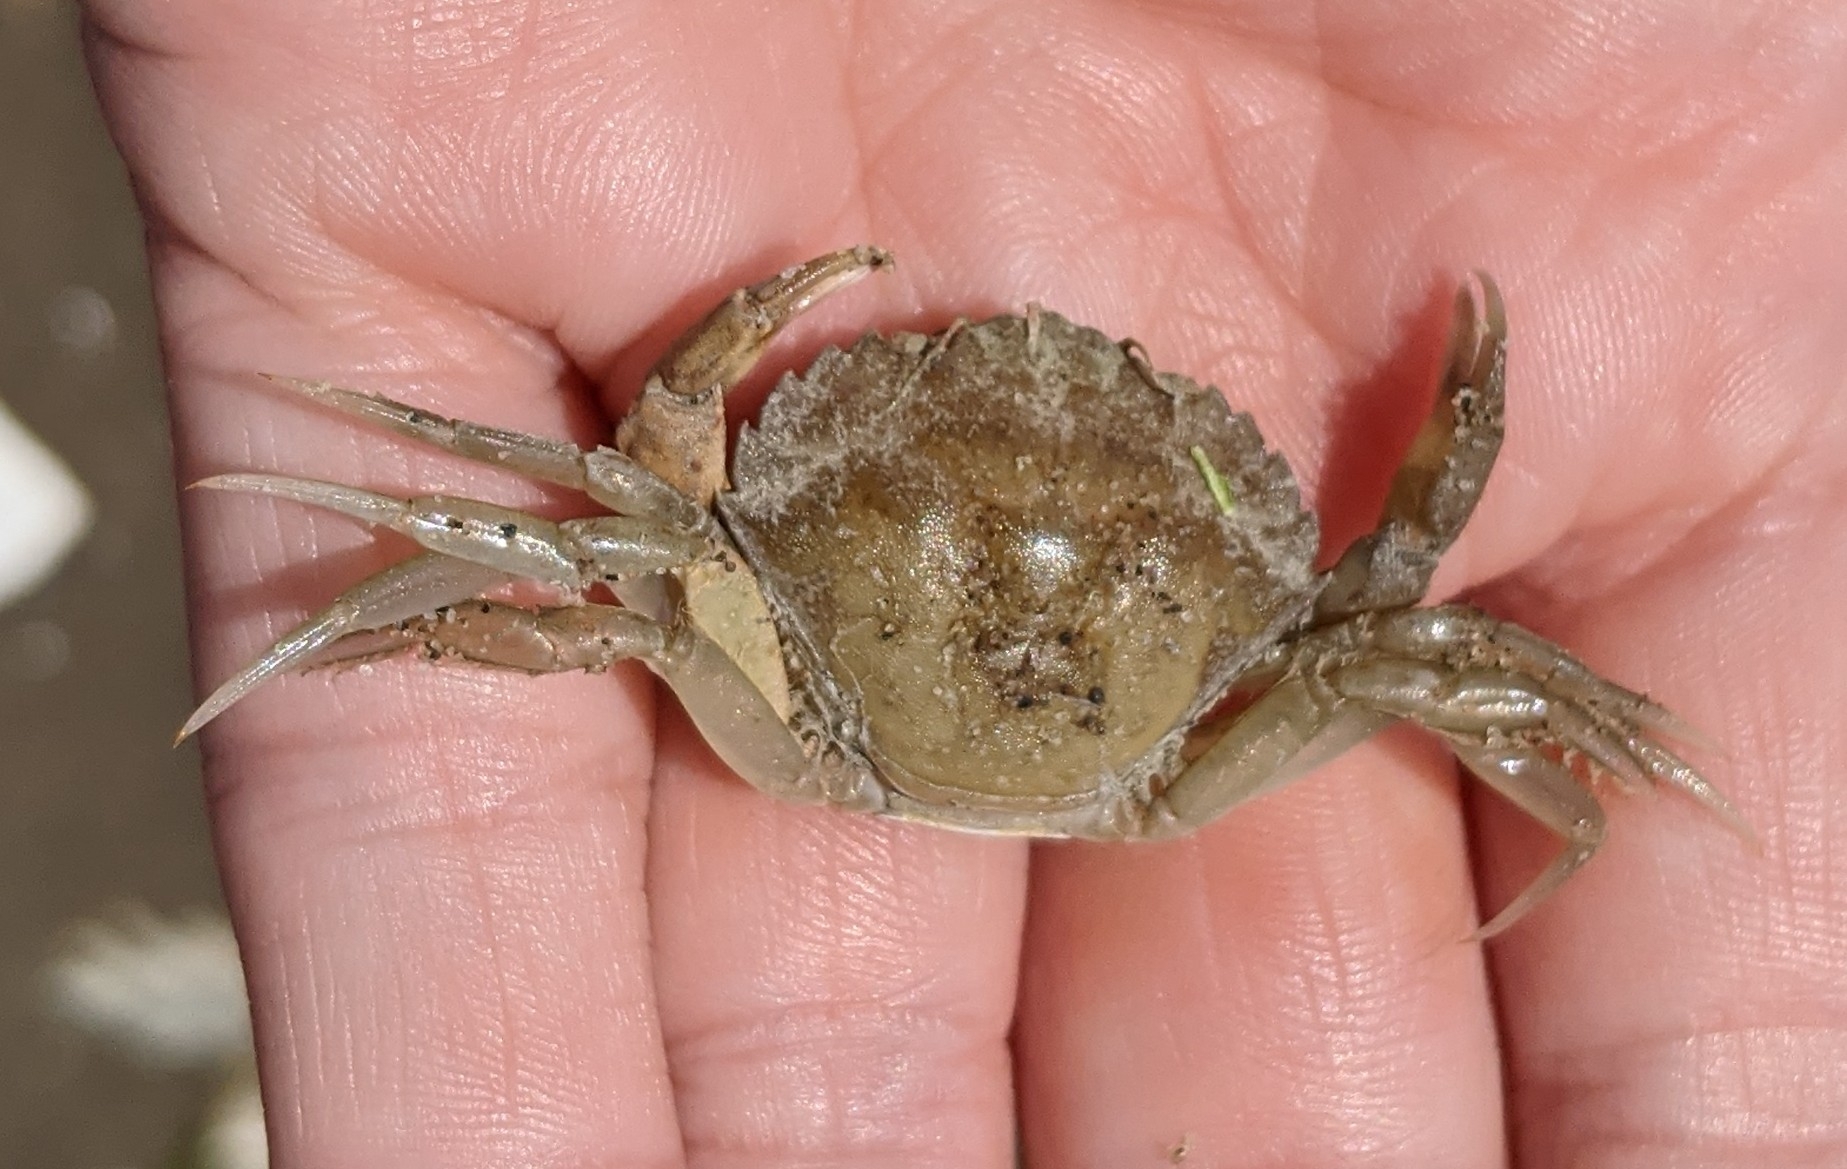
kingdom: Animalia
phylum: Arthropoda
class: Malacostraca
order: Decapoda
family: Carcinidae
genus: Carcinus
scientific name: Carcinus maenas
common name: European green crab
